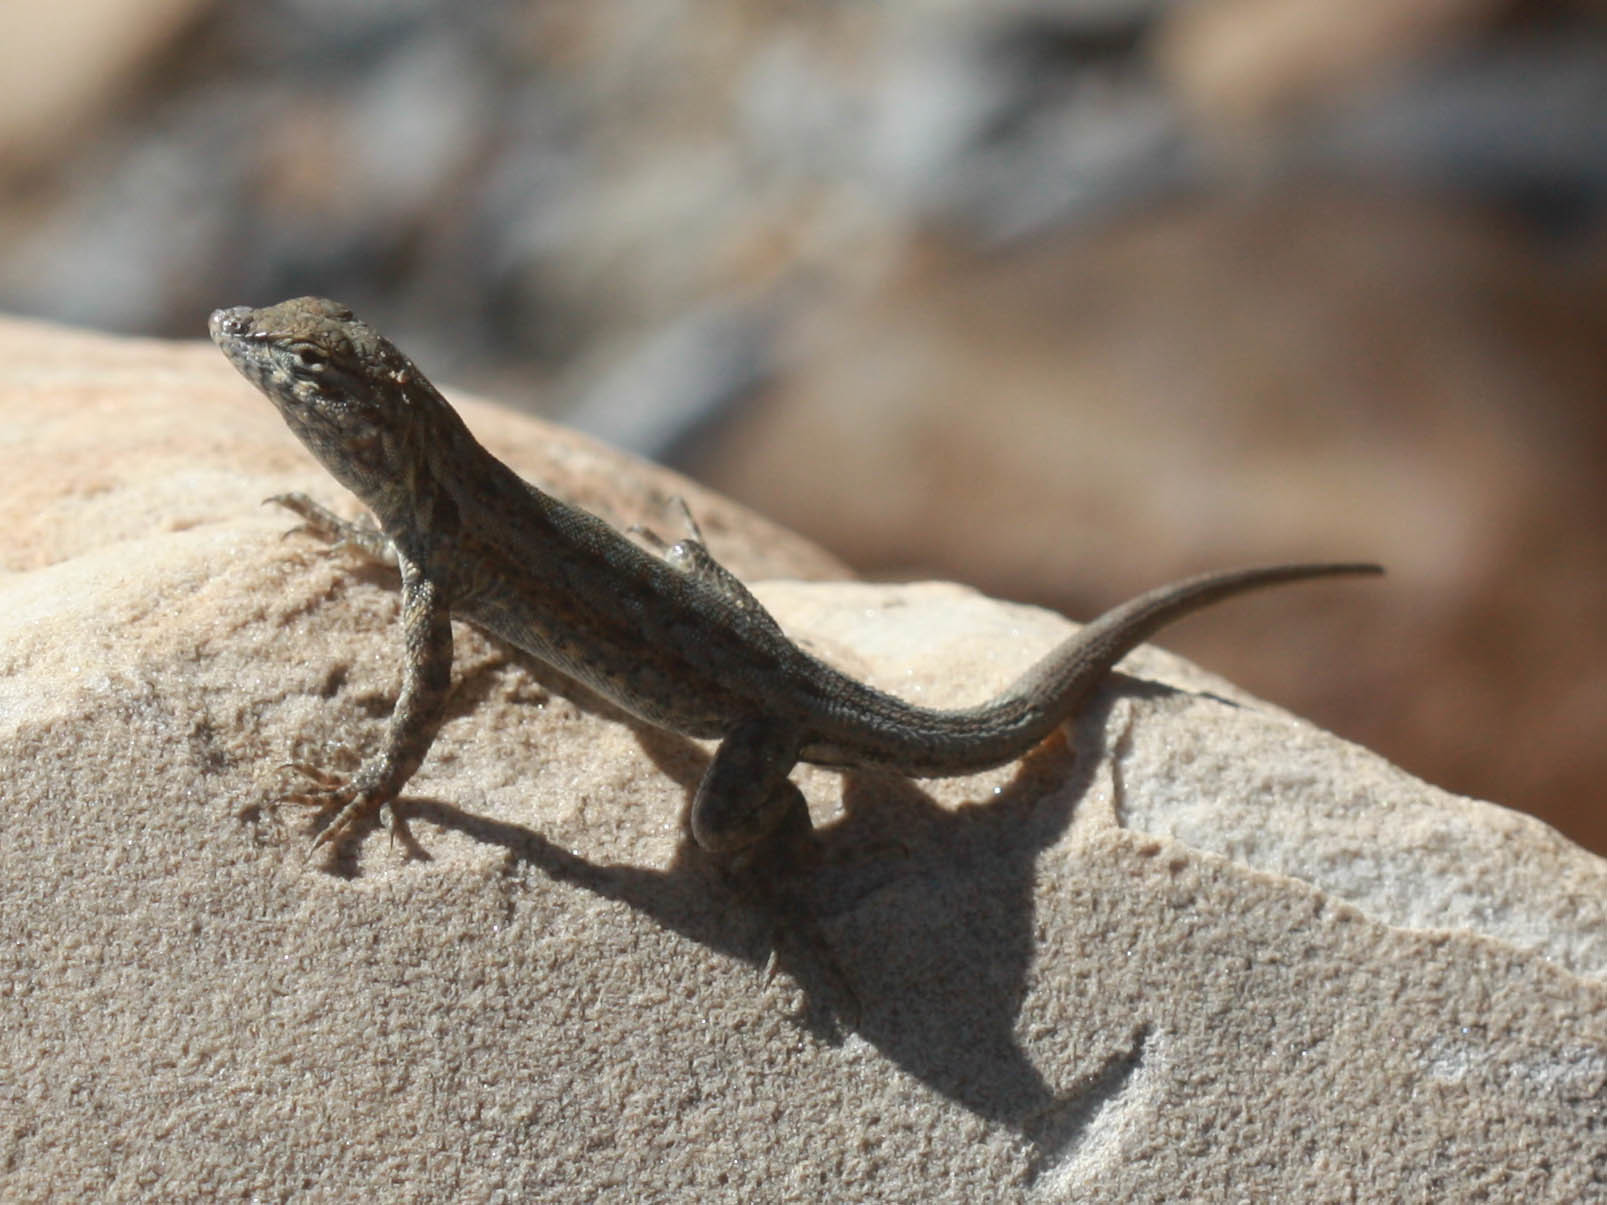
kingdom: Animalia
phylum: Chordata
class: Squamata
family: Phrynosomatidae
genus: Uta
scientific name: Uta stansburiana
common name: Side-blotched lizard
